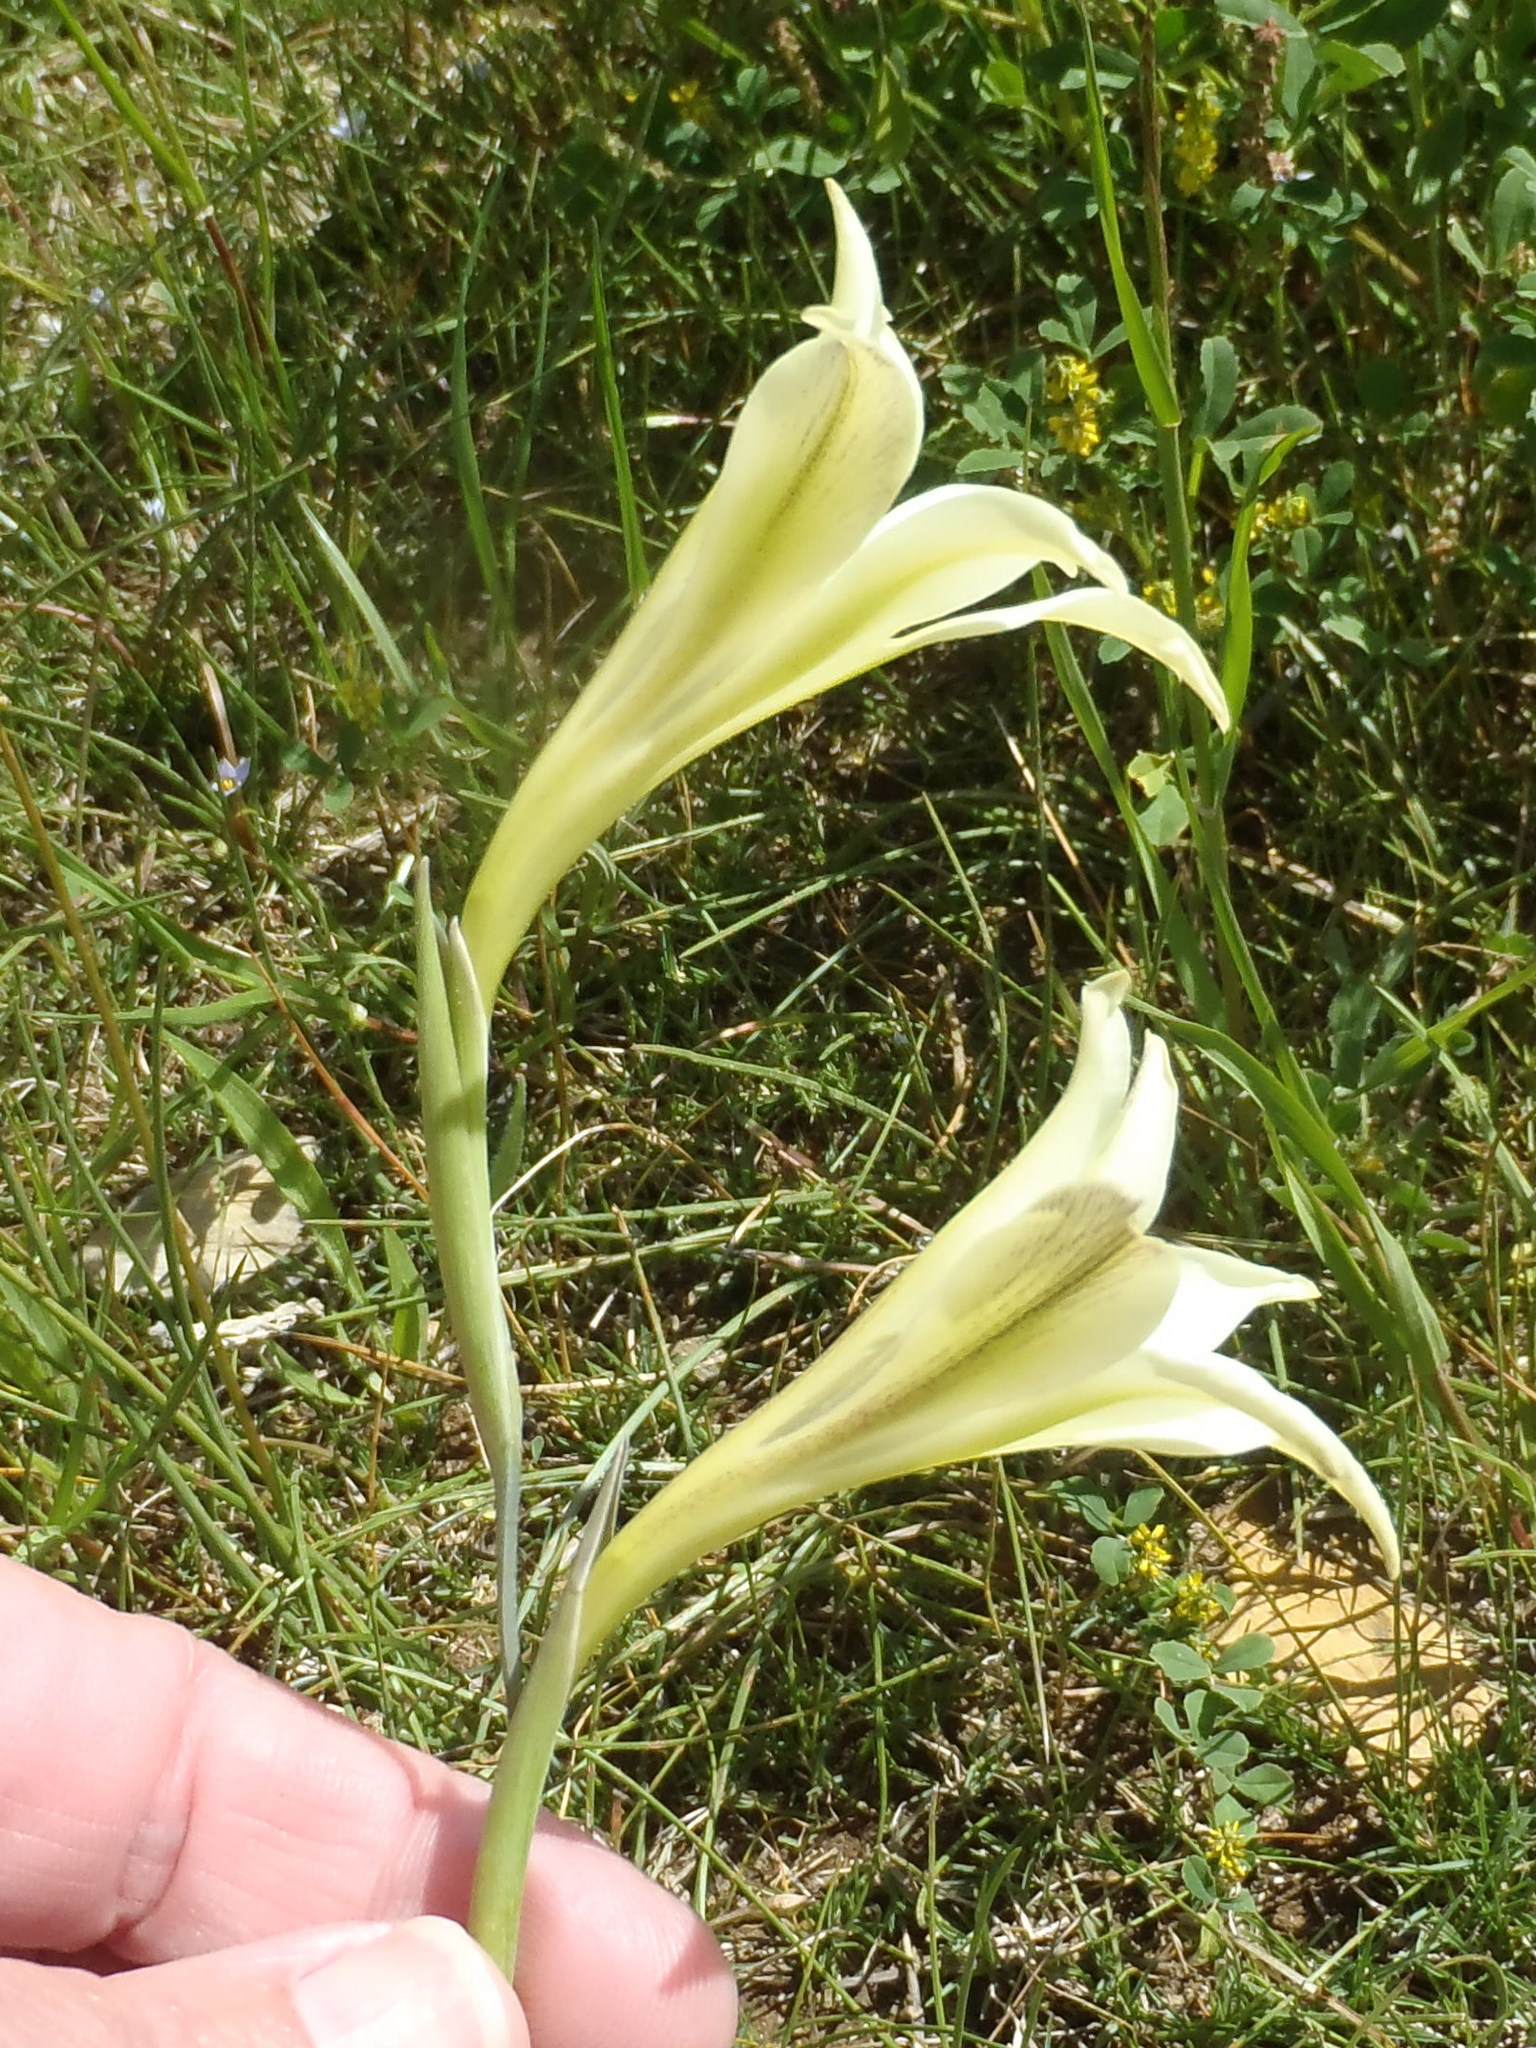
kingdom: Plantae
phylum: Tracheophyta
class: Liliopsida
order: Asparagales
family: Iridaceae
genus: Gladiolus
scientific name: Gladiolus tristis
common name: Ever-flowering gladiolus
